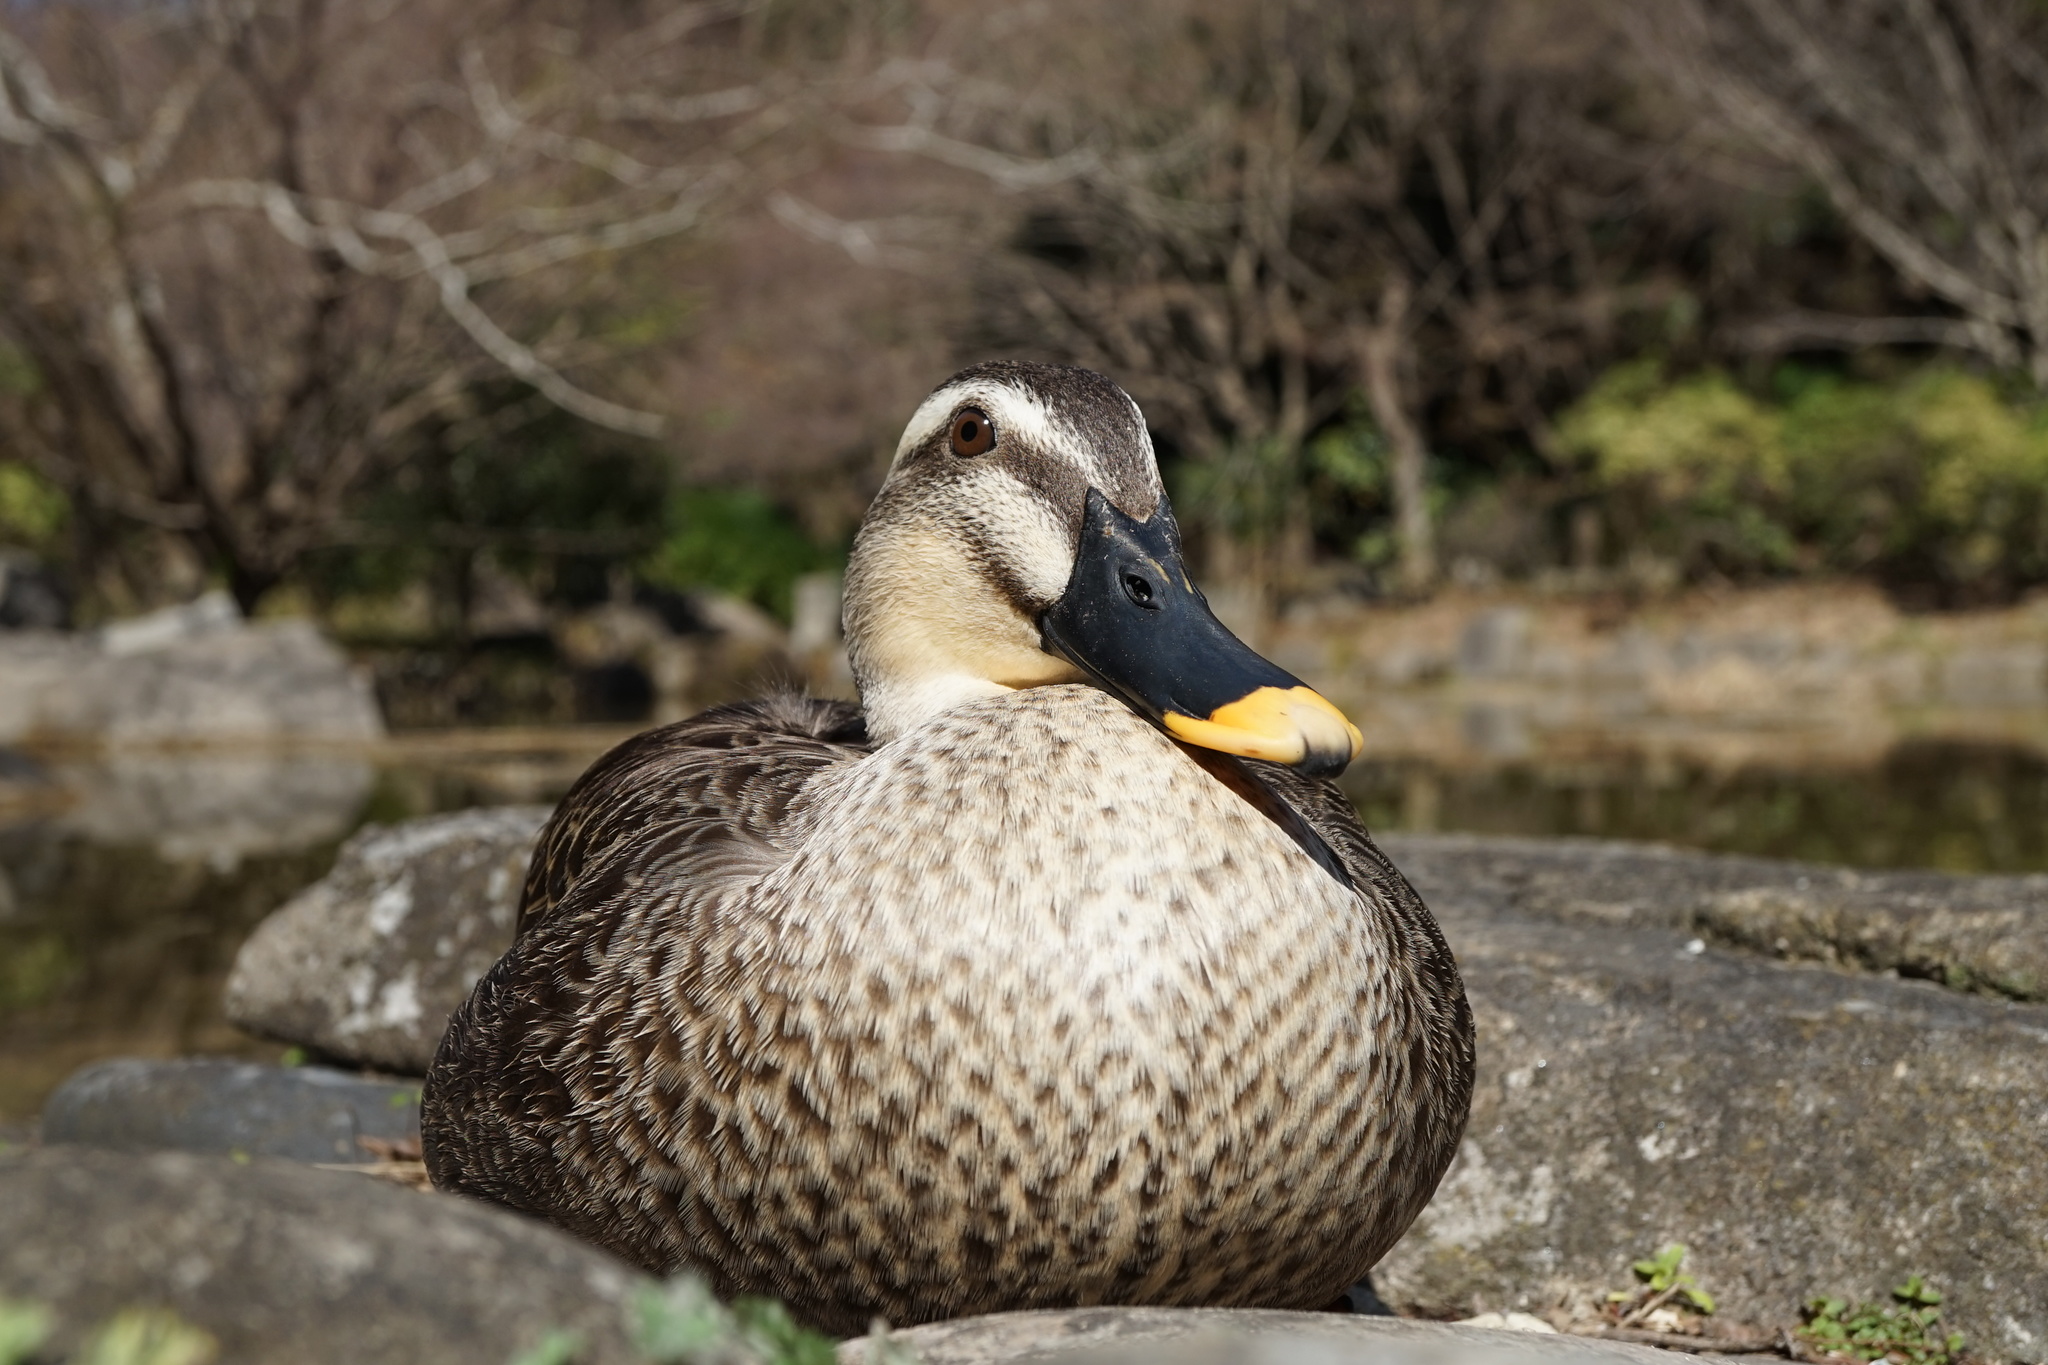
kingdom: Animalia
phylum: Chordata
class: Aves
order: Anseriformes
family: Anatidae
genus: Anas
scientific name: Anas zonorhyncha
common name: Eastern spot-billed duck
